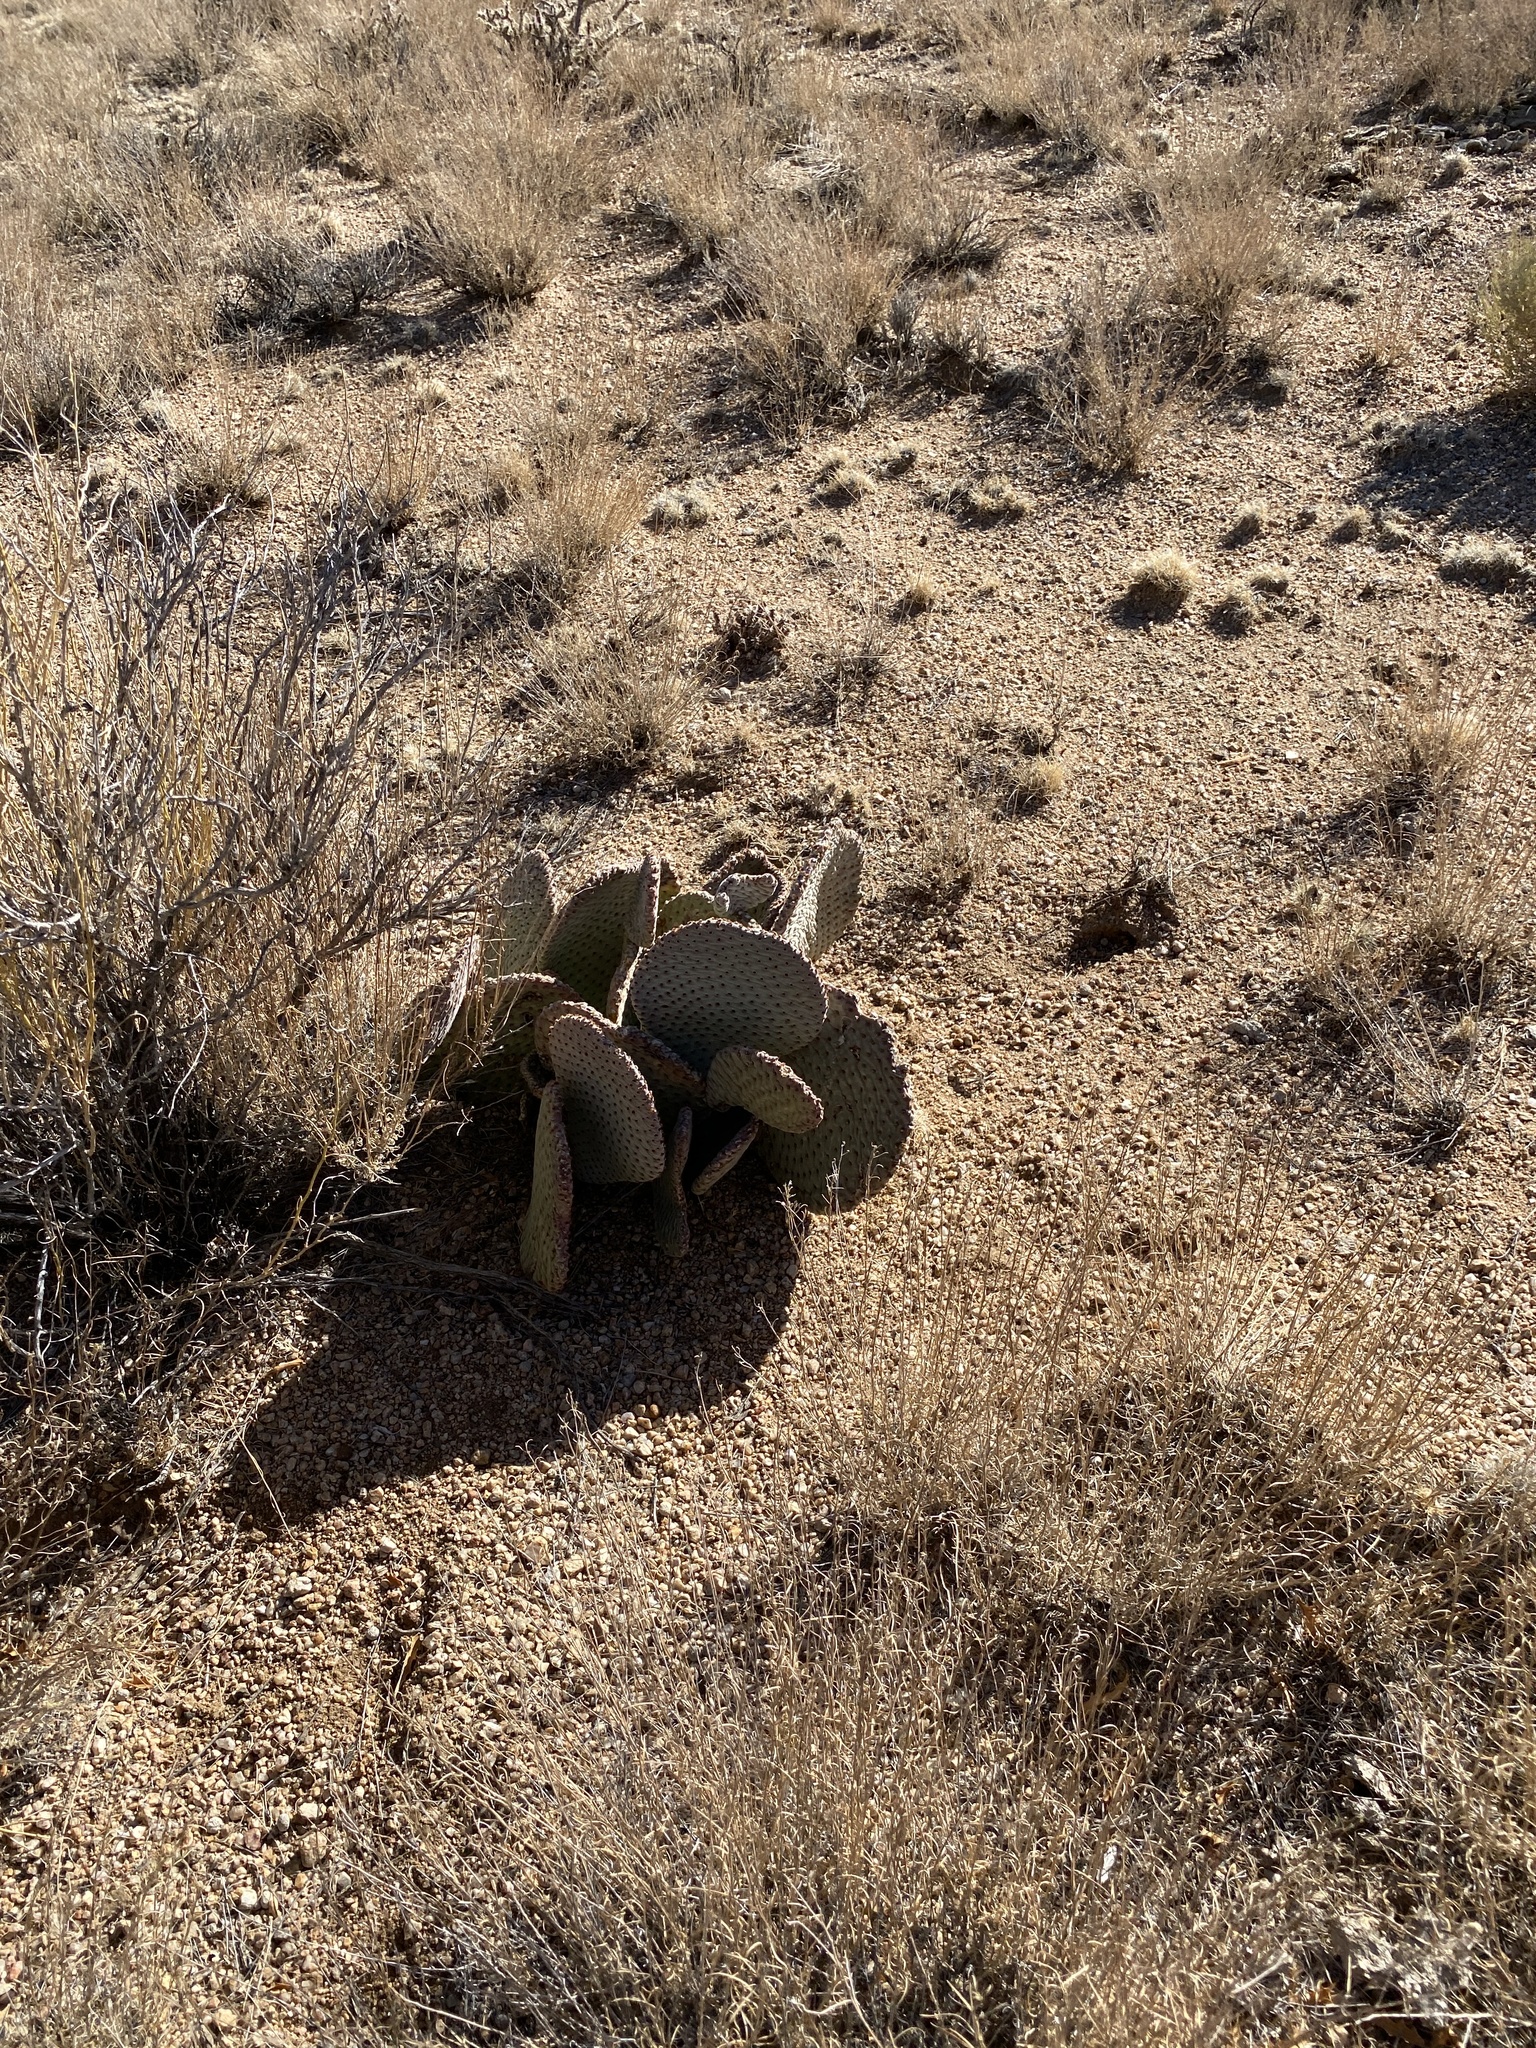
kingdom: Plantae
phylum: Tracheophyta
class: Magnoliopsida
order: Caryophyllales
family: Cactaceae
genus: Opuntia
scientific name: Opuntia basilaris
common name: Beavertail prickly-pear
